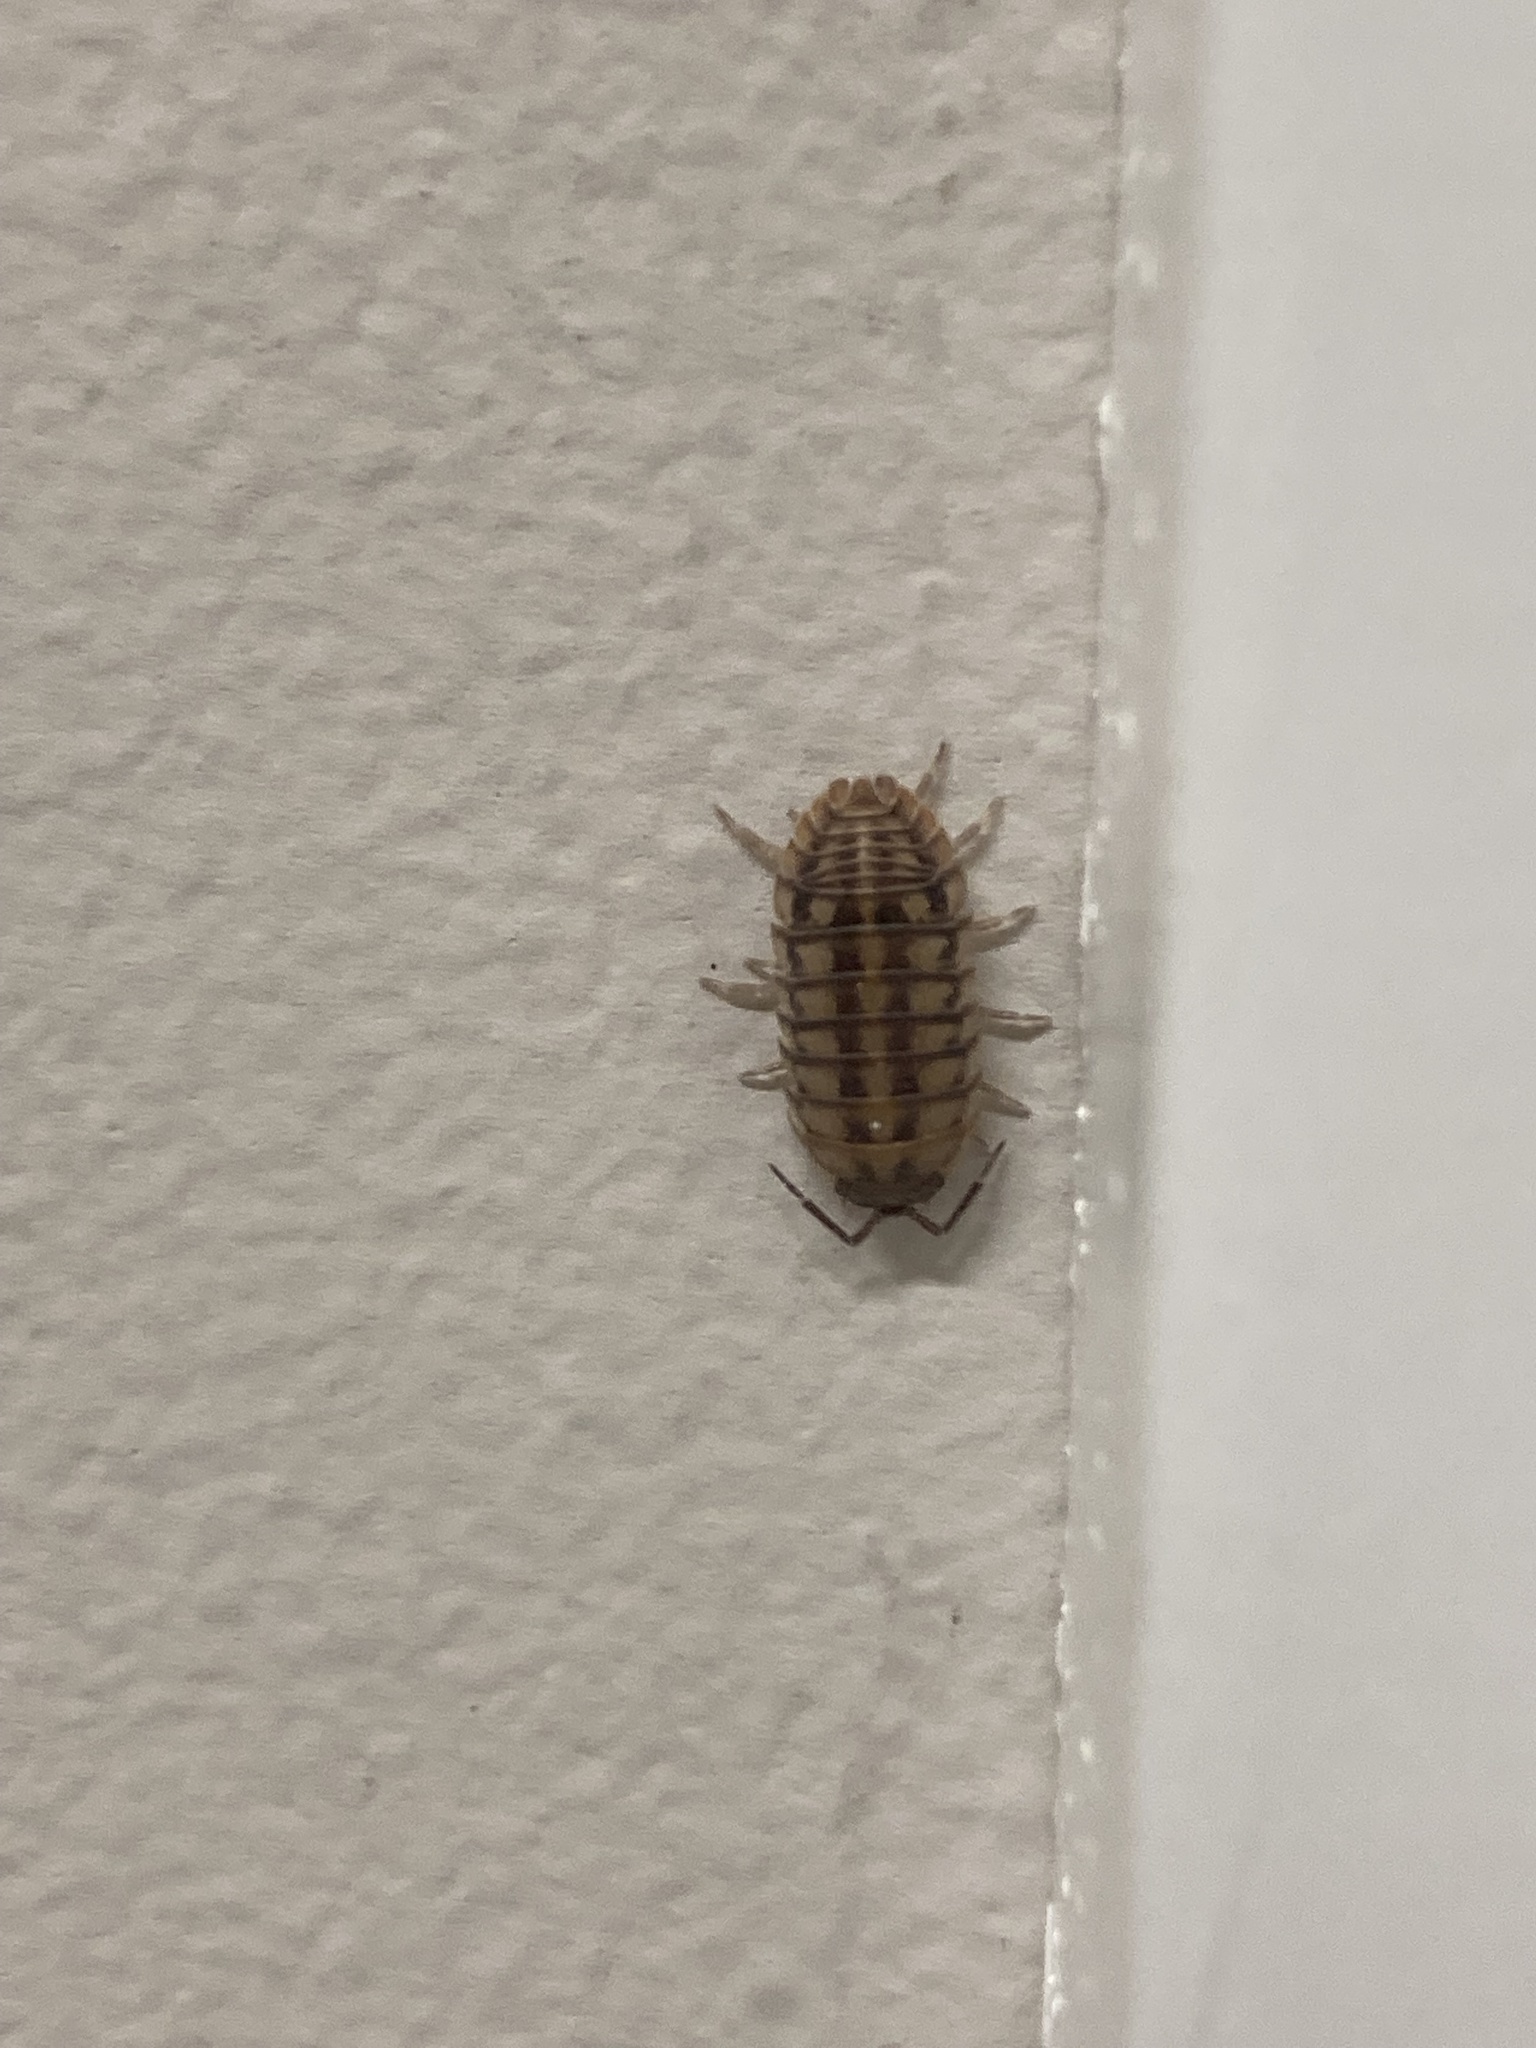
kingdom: Animalia
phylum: Arthropoda
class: Malacostraca
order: Isopoda
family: Armadillidiidae
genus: Armadillidium
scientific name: Armadillidium nasatum
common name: Isopod
